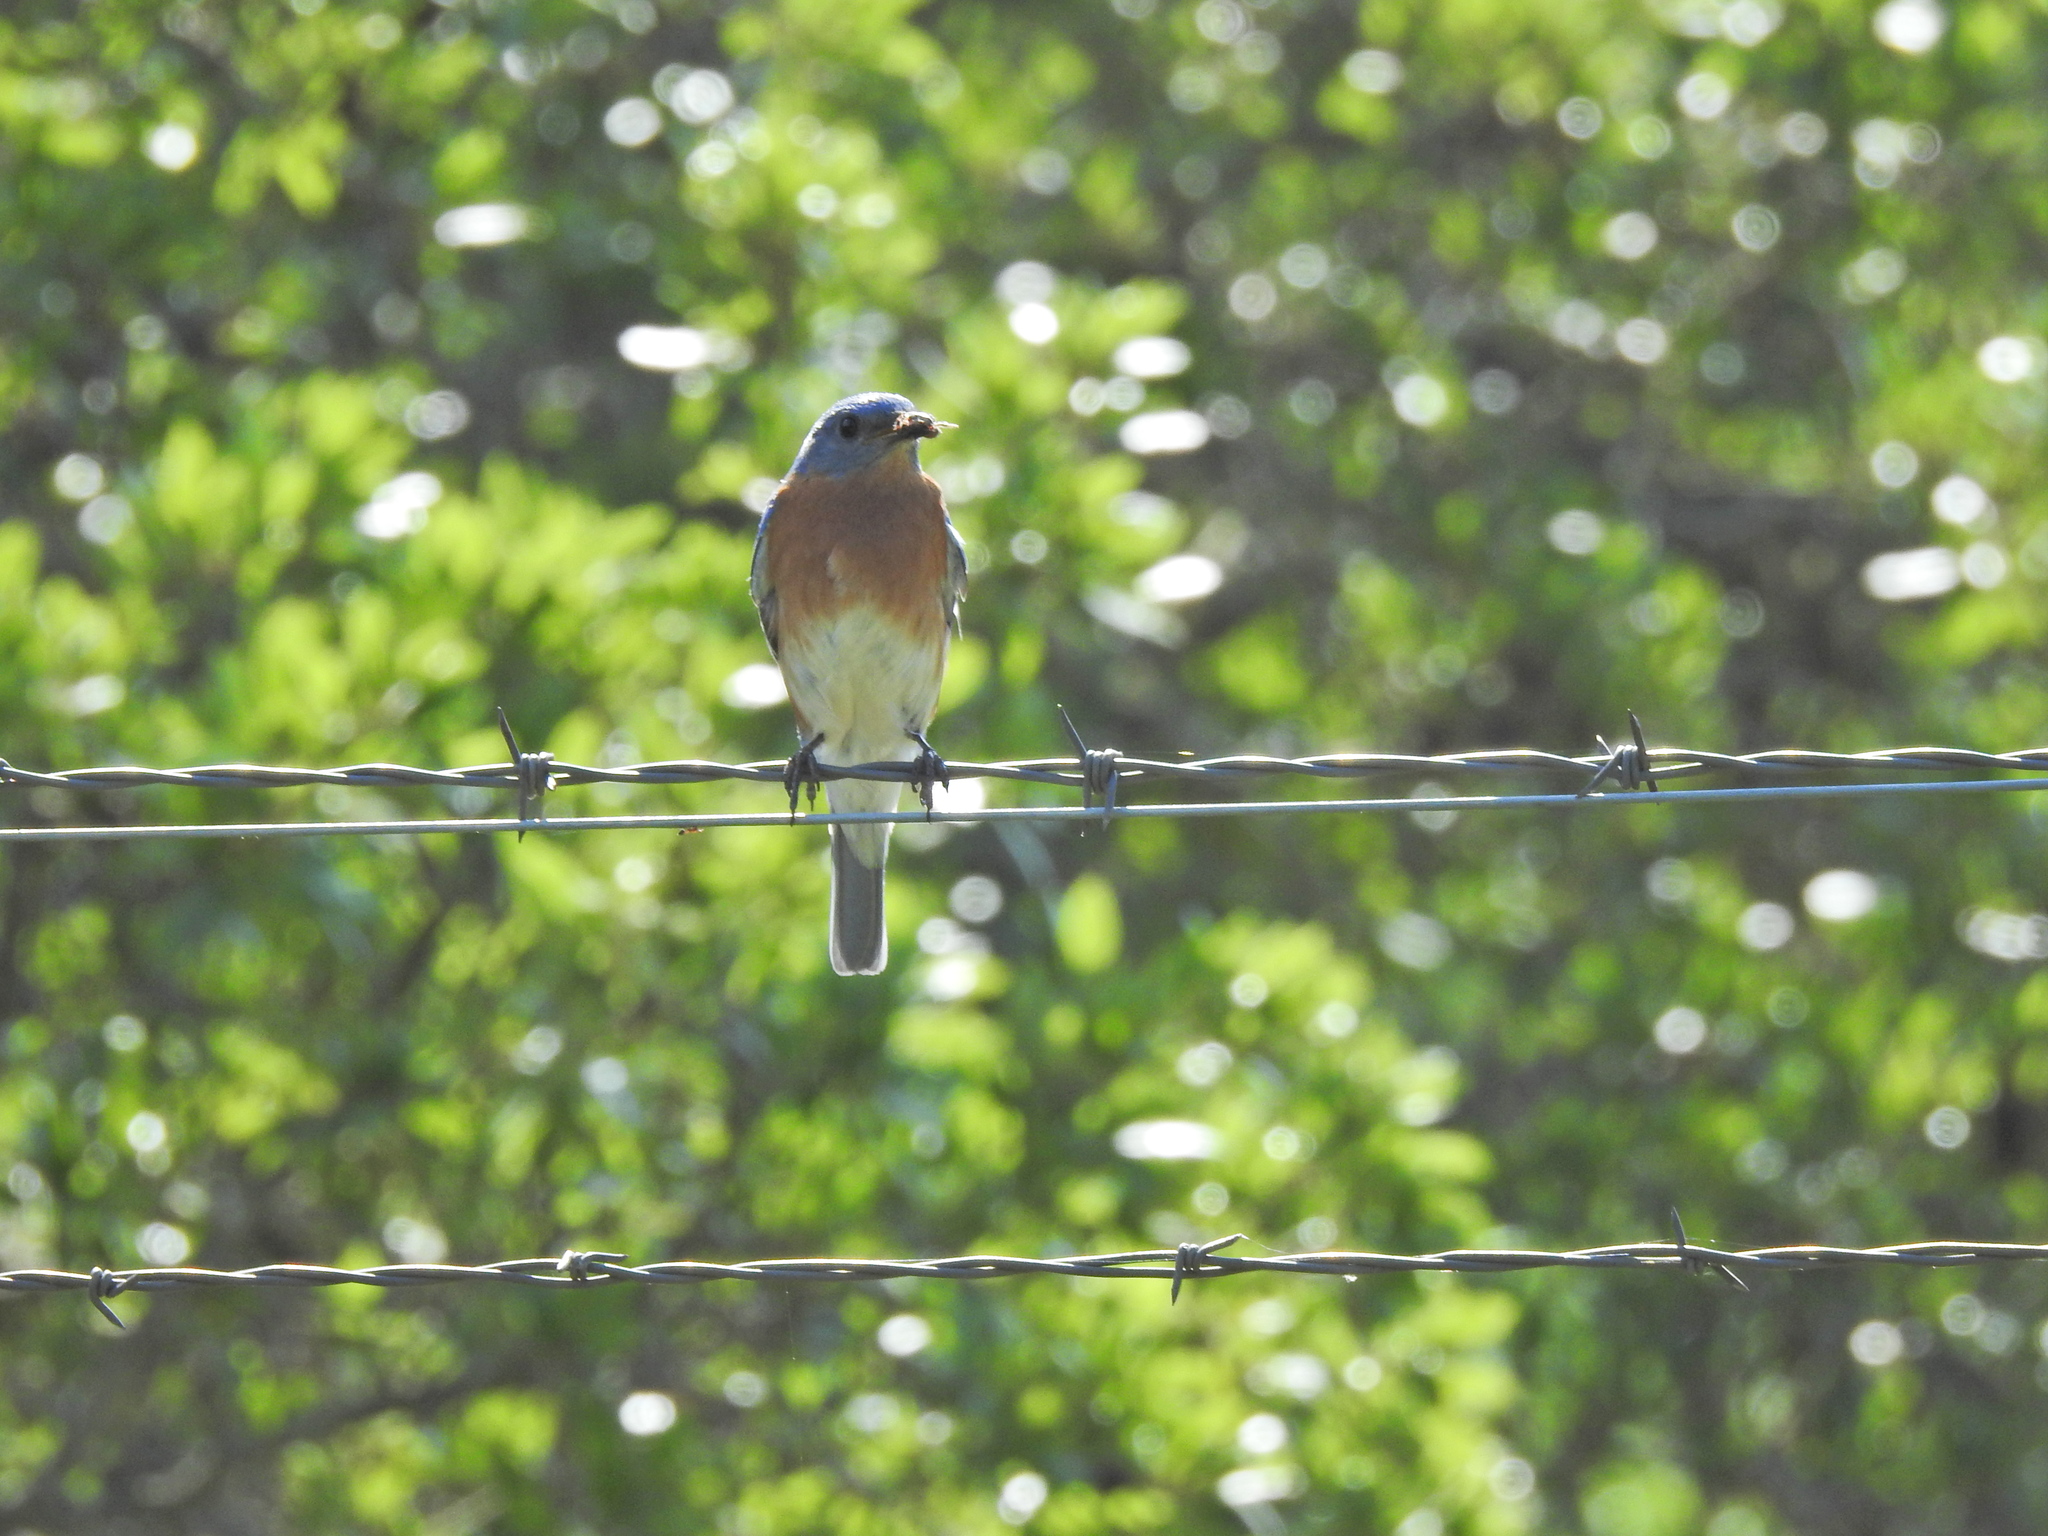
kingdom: Animalia
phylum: Chordata
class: Aves
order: Passeriformes
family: Turdidae
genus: Sialia
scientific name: Sialia sialis
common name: Eastern bluebird
